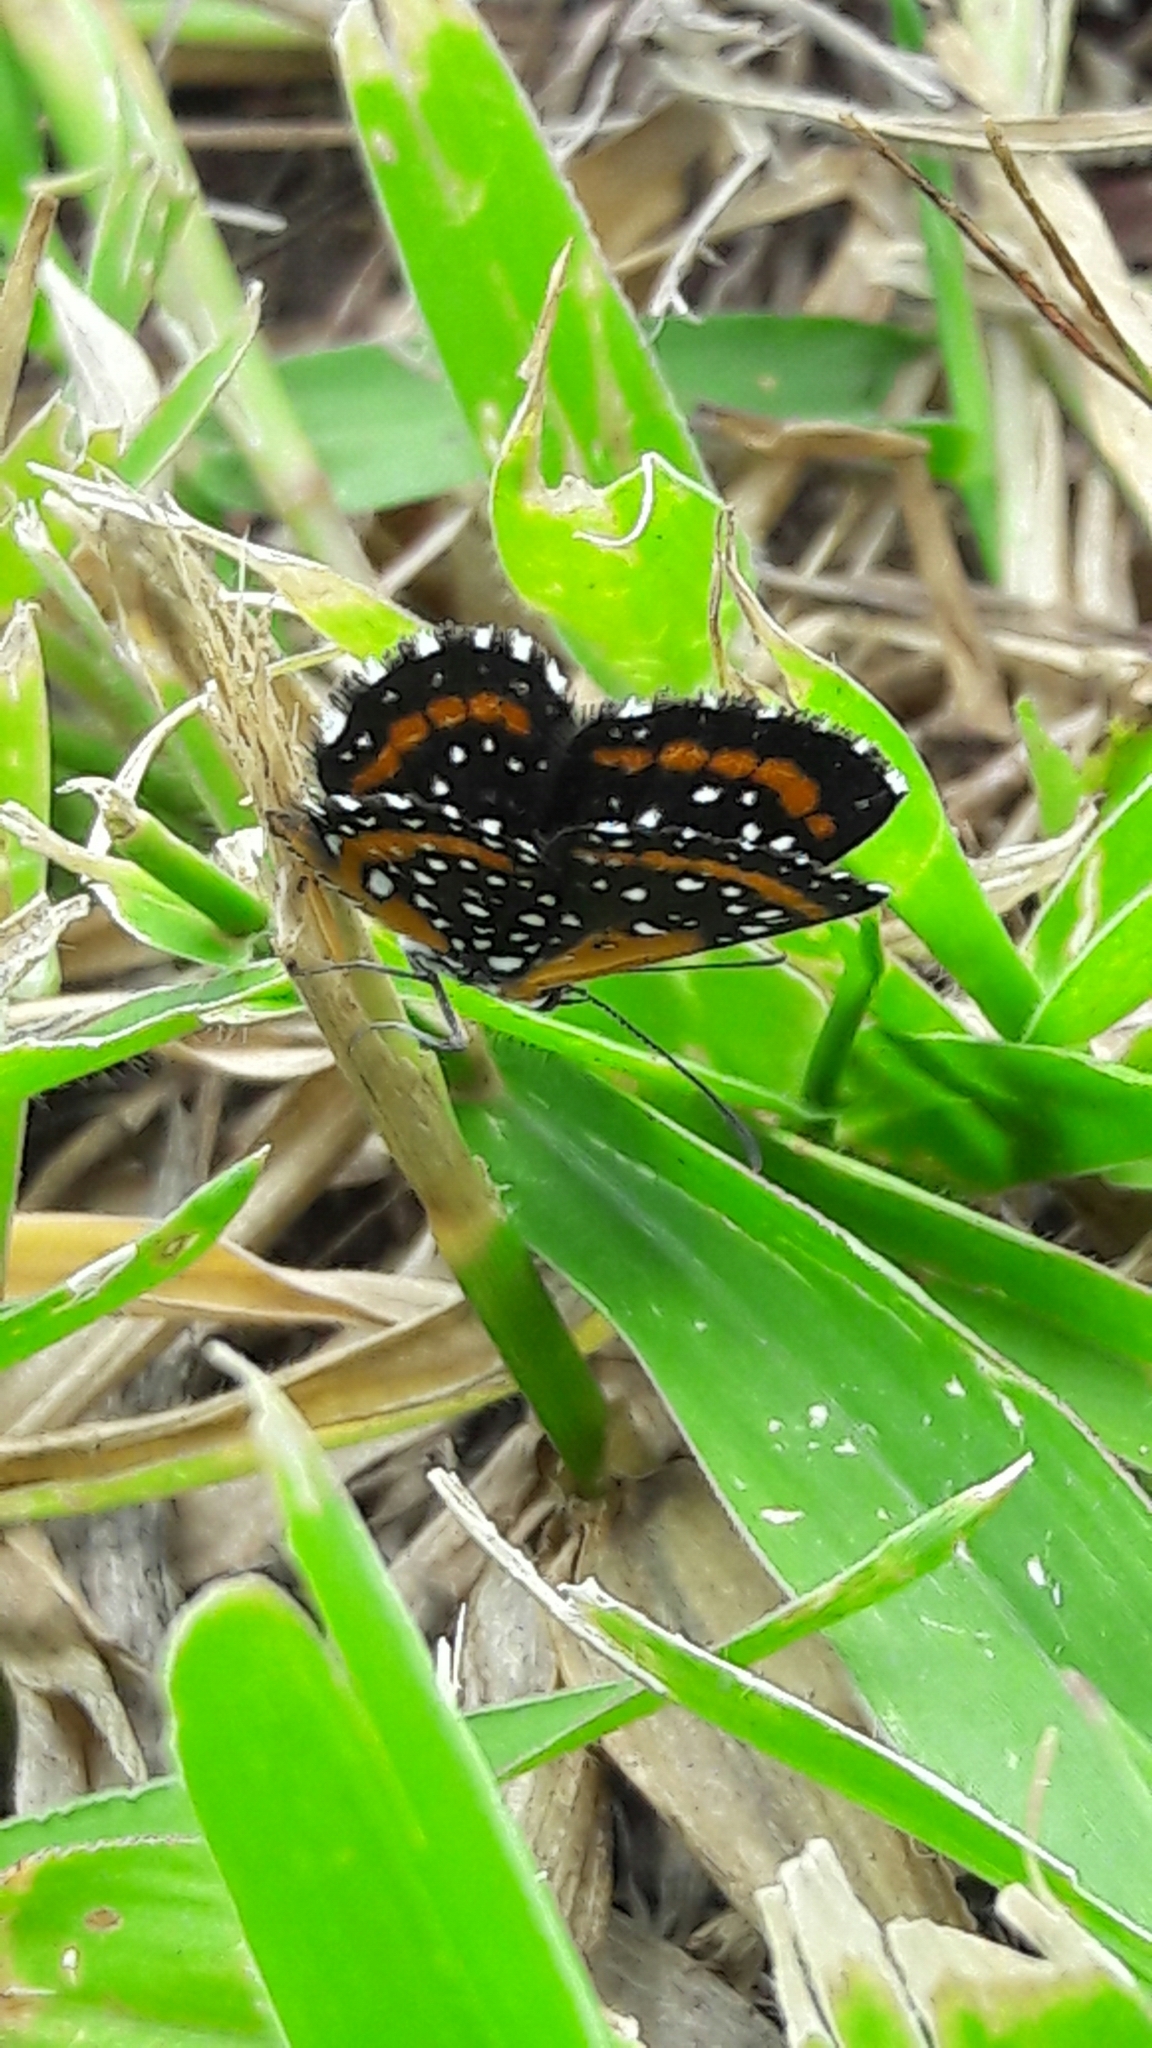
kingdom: Animalia
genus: Lemonias
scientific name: Lemonias
